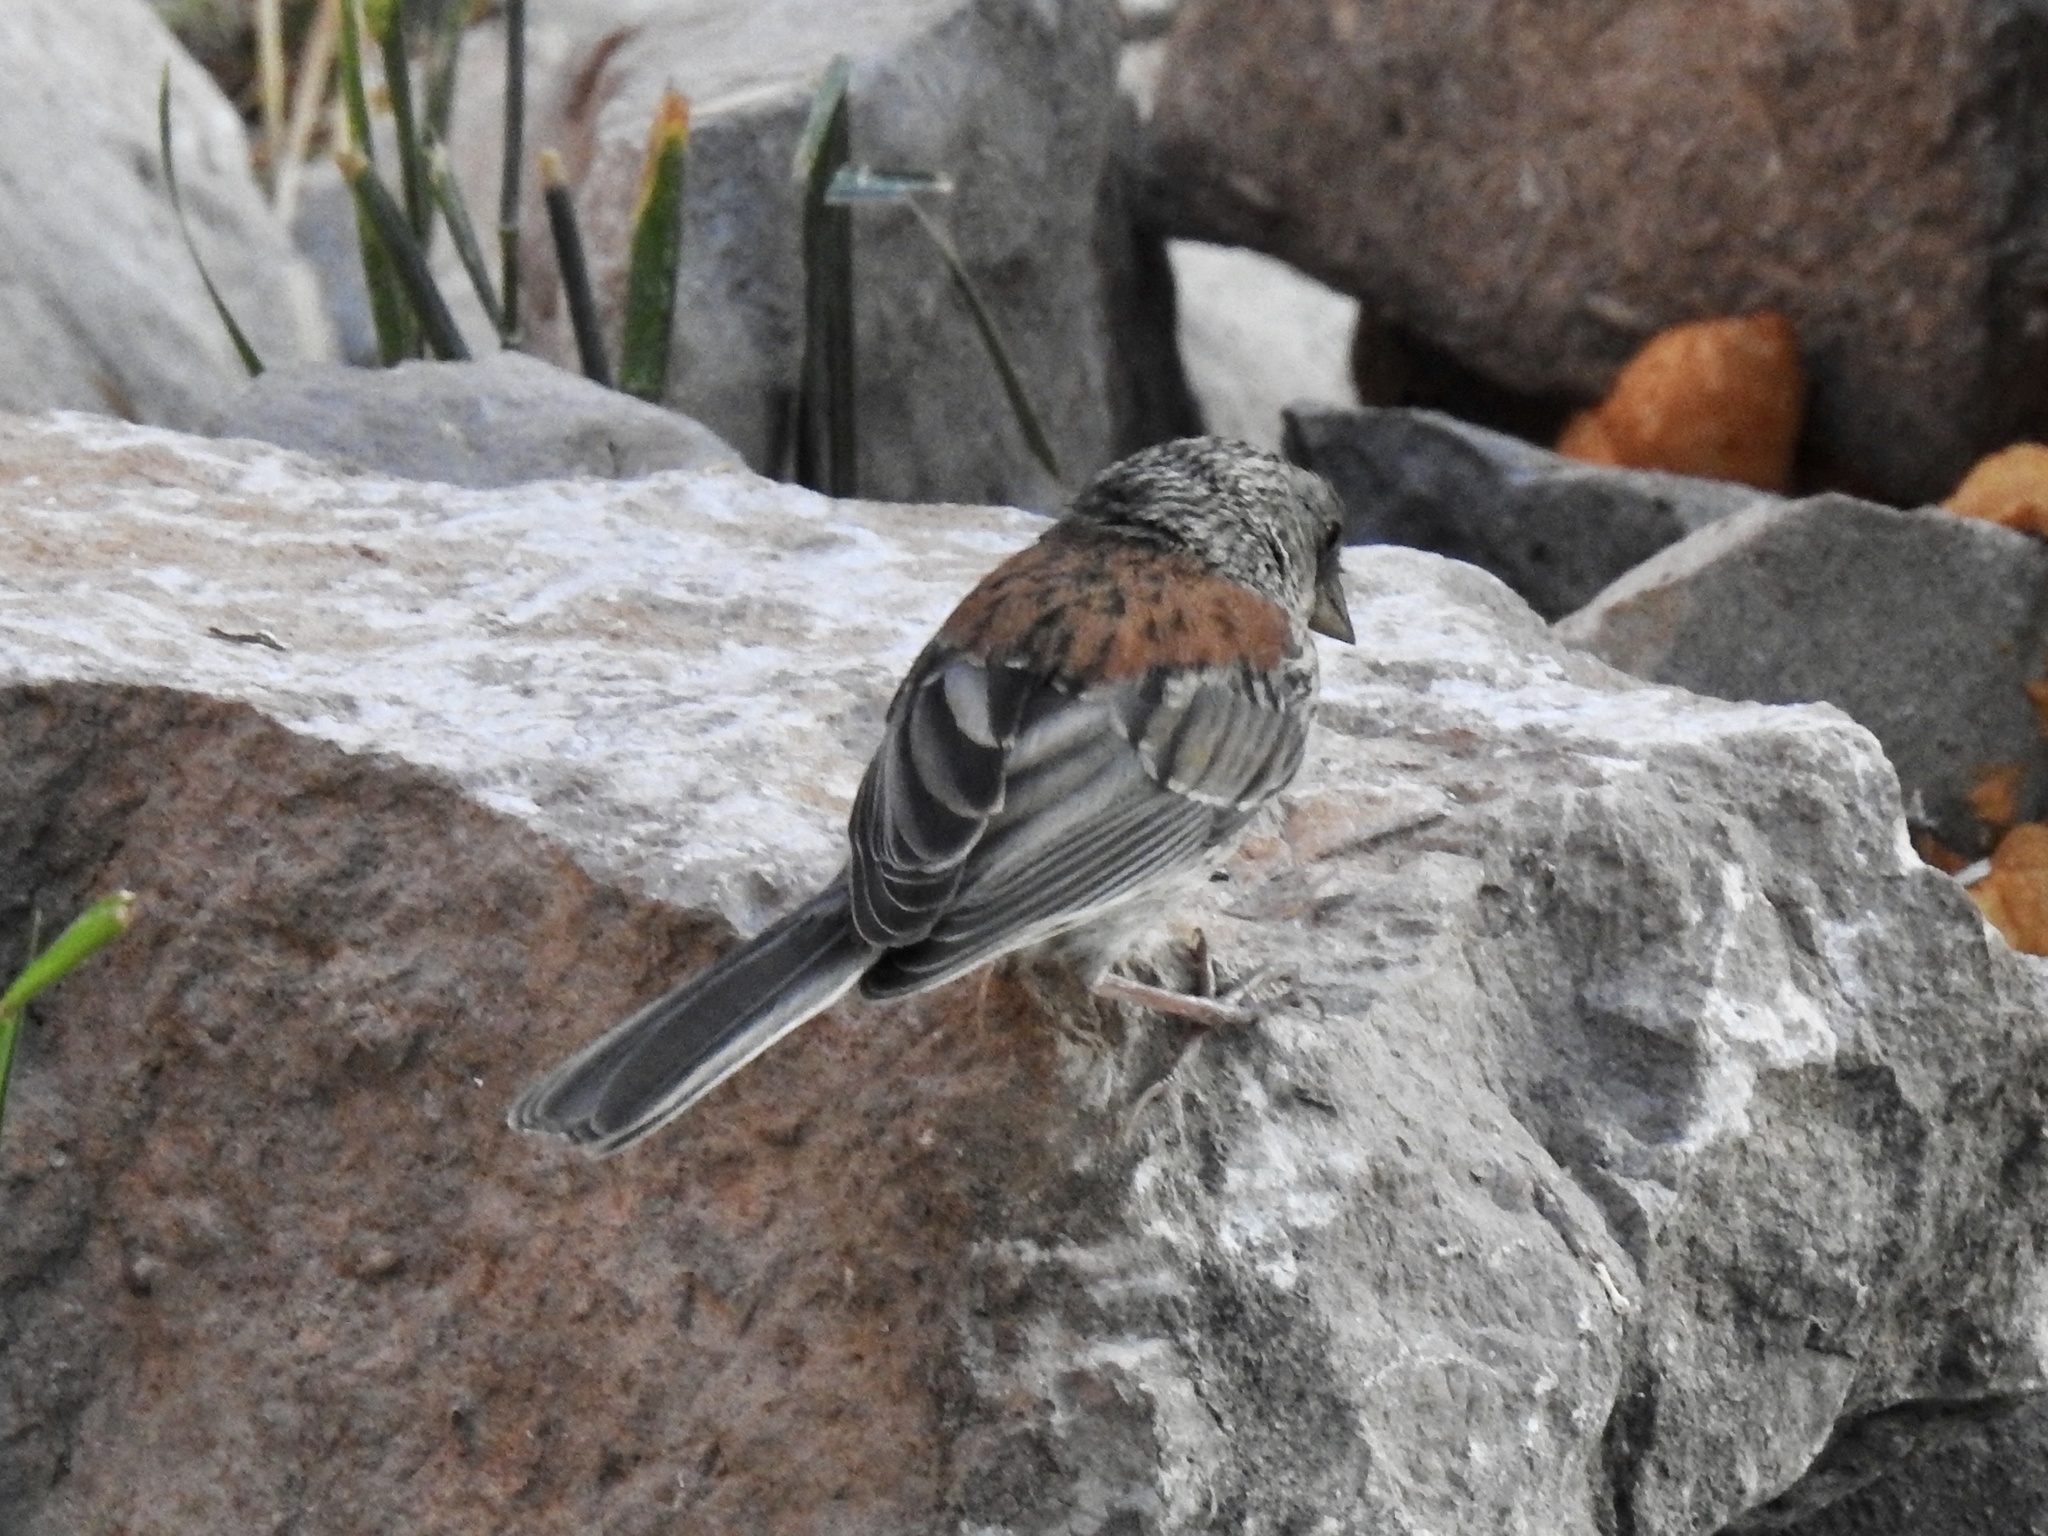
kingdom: Animalia
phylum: Chordata
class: Aves
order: Passeriformes
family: Passerellidae
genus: Junco
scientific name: Junco hyemalis
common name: Dark-eyed junco
